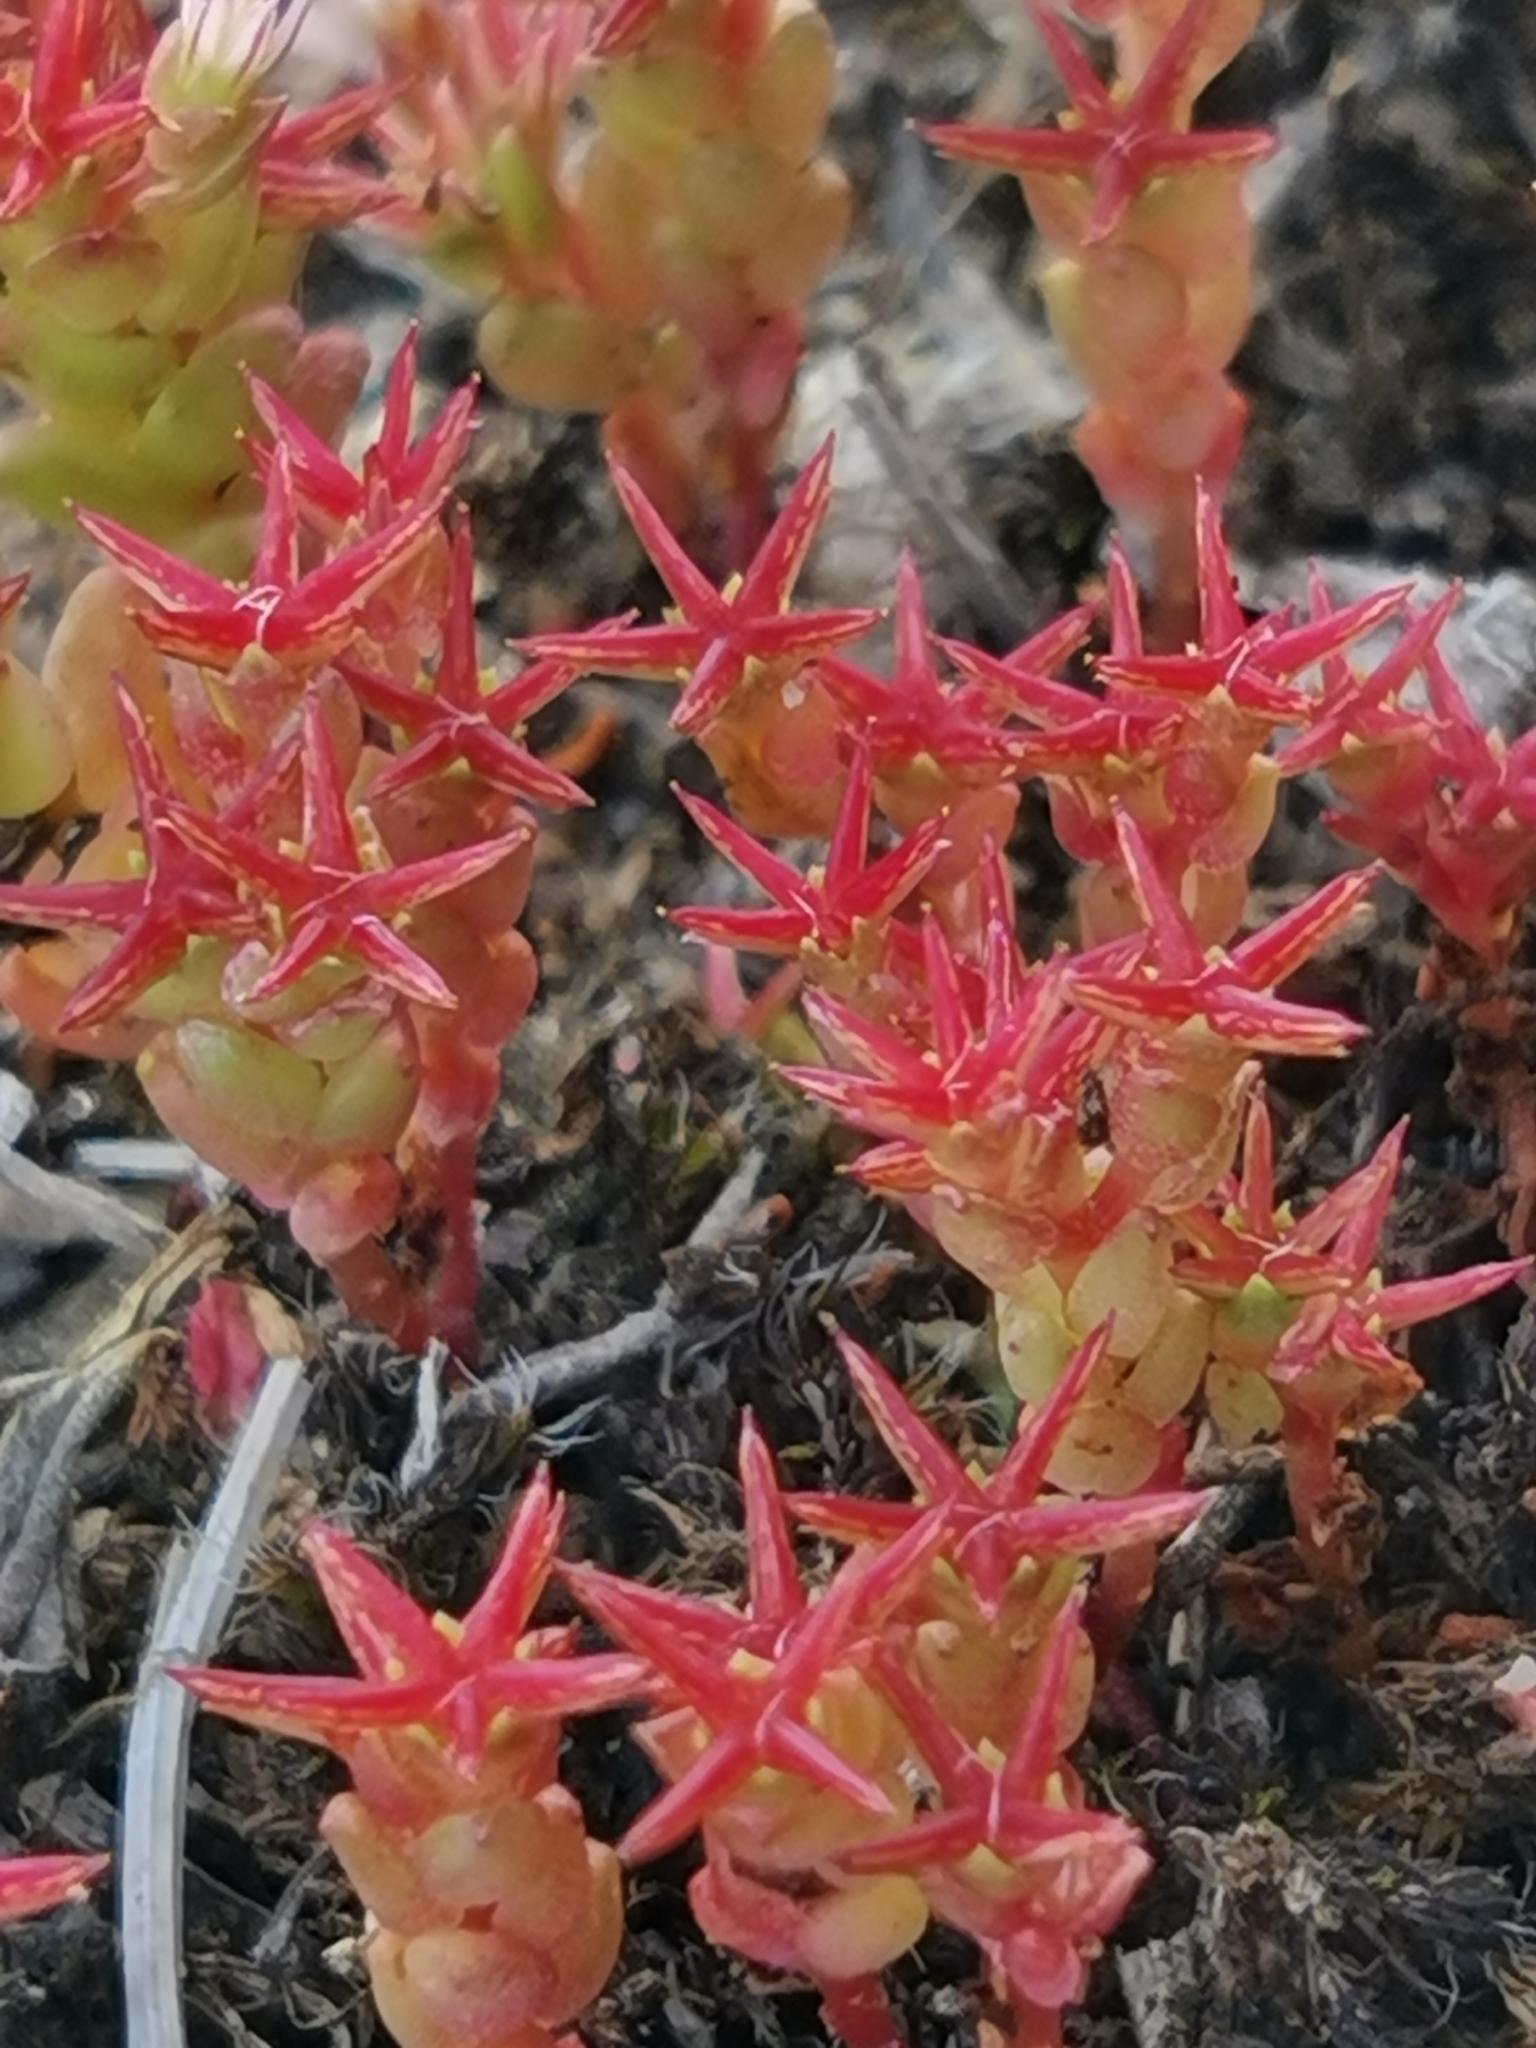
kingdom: Plantae
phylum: Tracheophyta
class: Magnoliopsida
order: Saxifragales
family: Crassulaceae
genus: Sedum
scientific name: Sedum cespitosum
